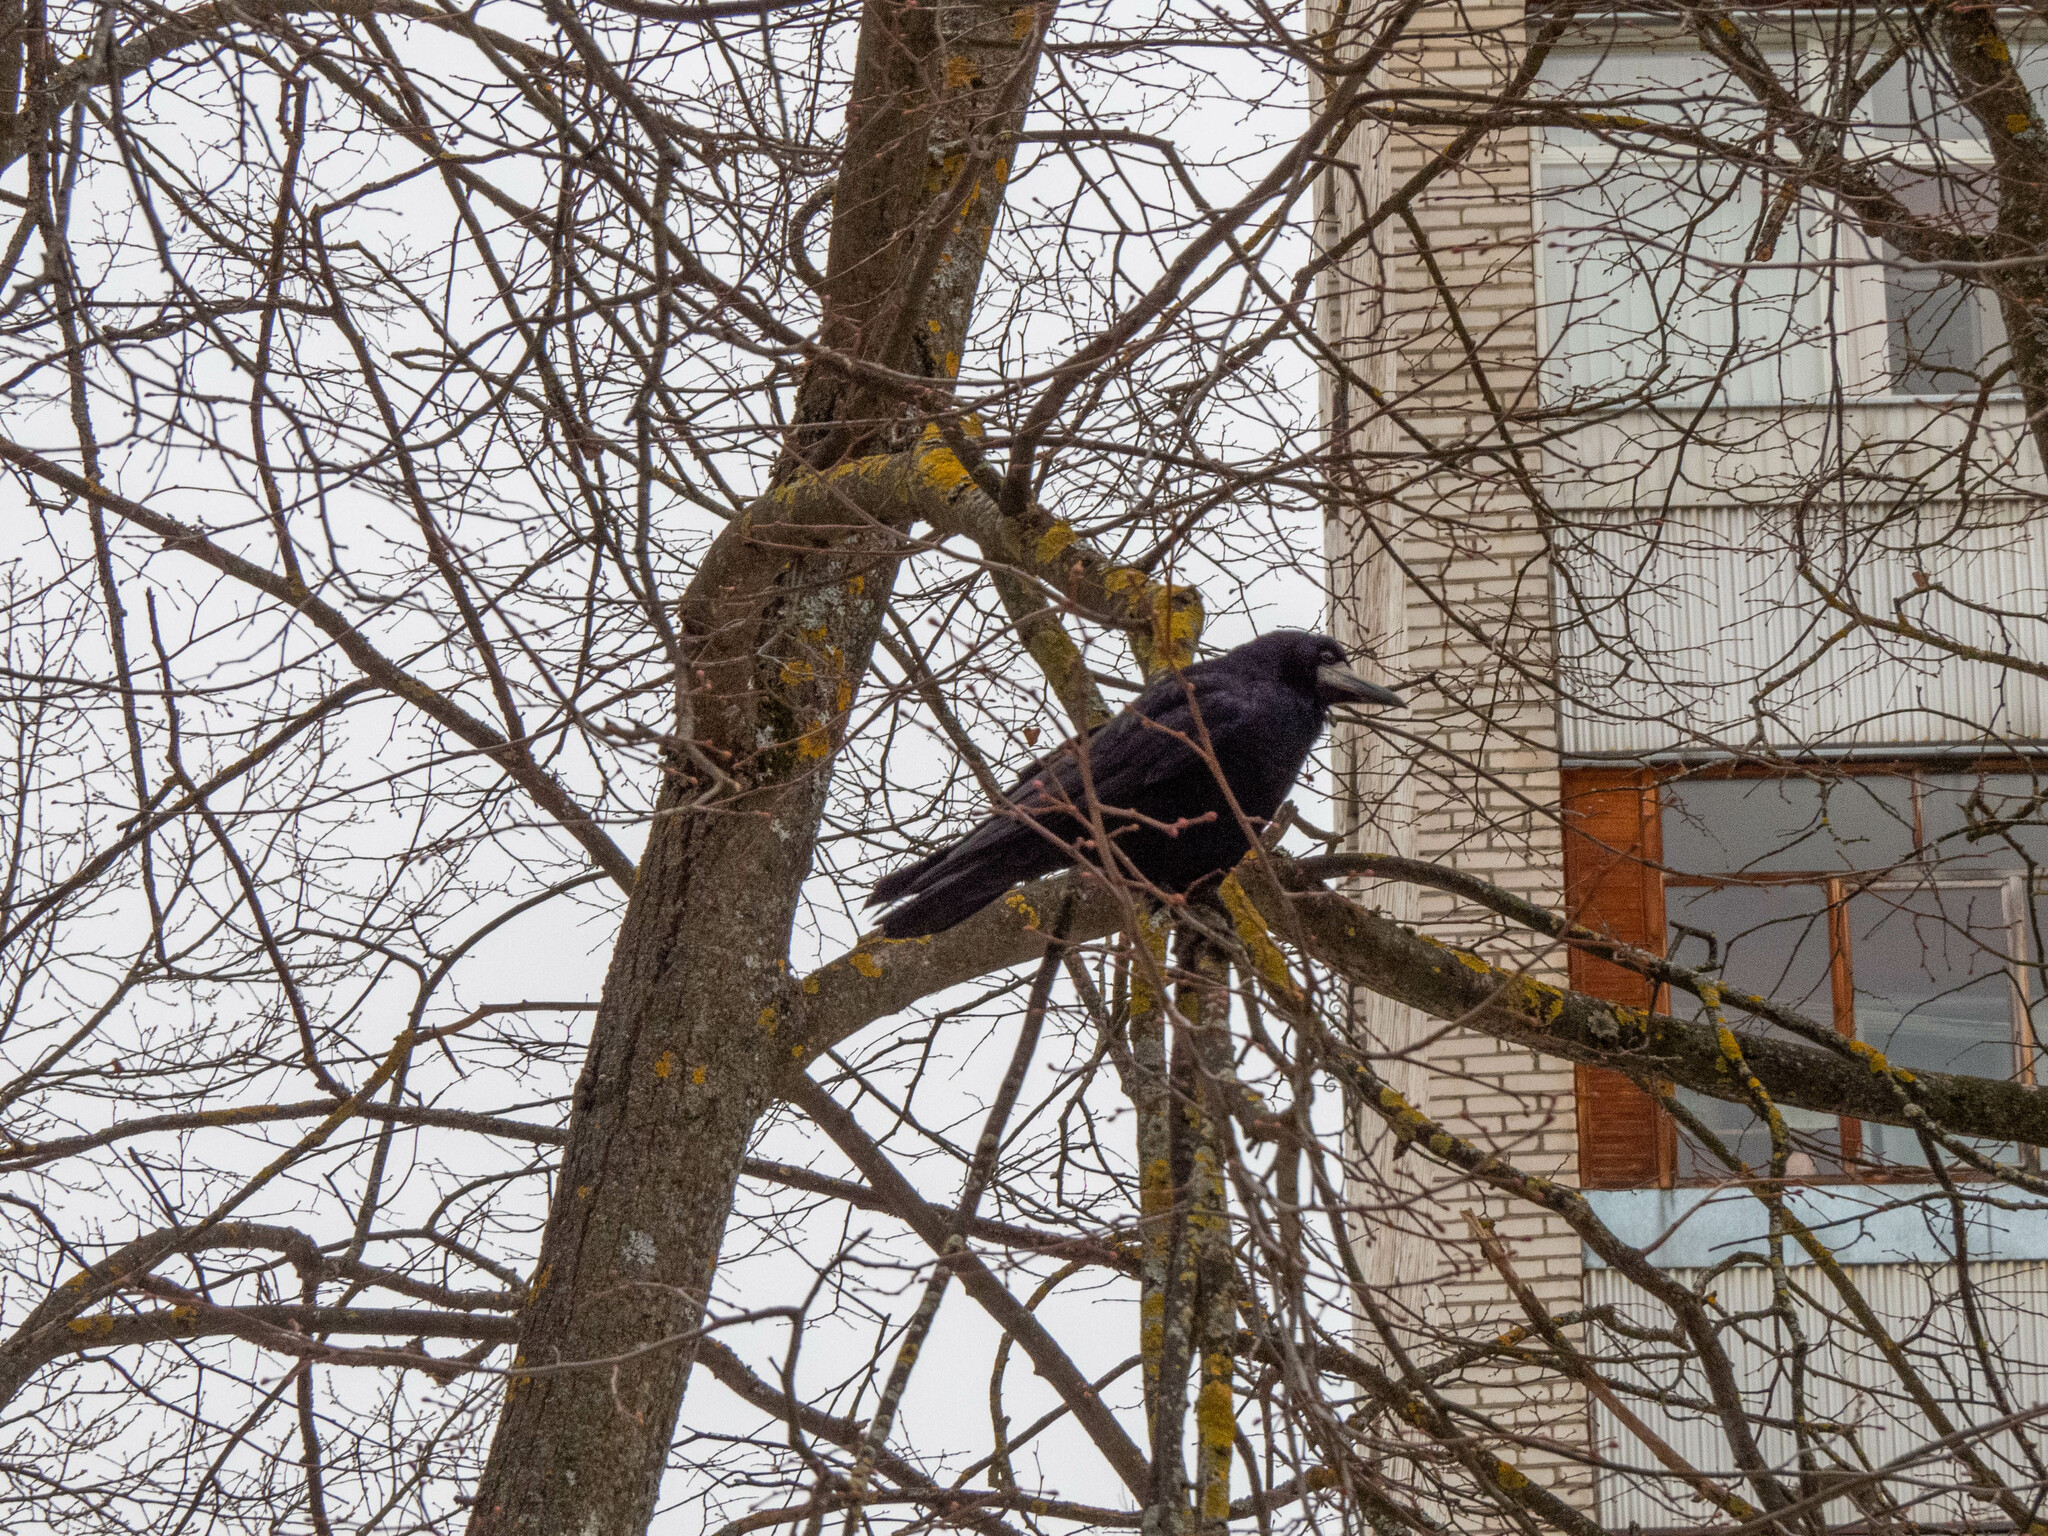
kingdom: Animalia
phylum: Chordata
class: Aves
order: Passeriformes
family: Corvidae
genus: Corvus
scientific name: Corvus frugilegus
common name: Rook
